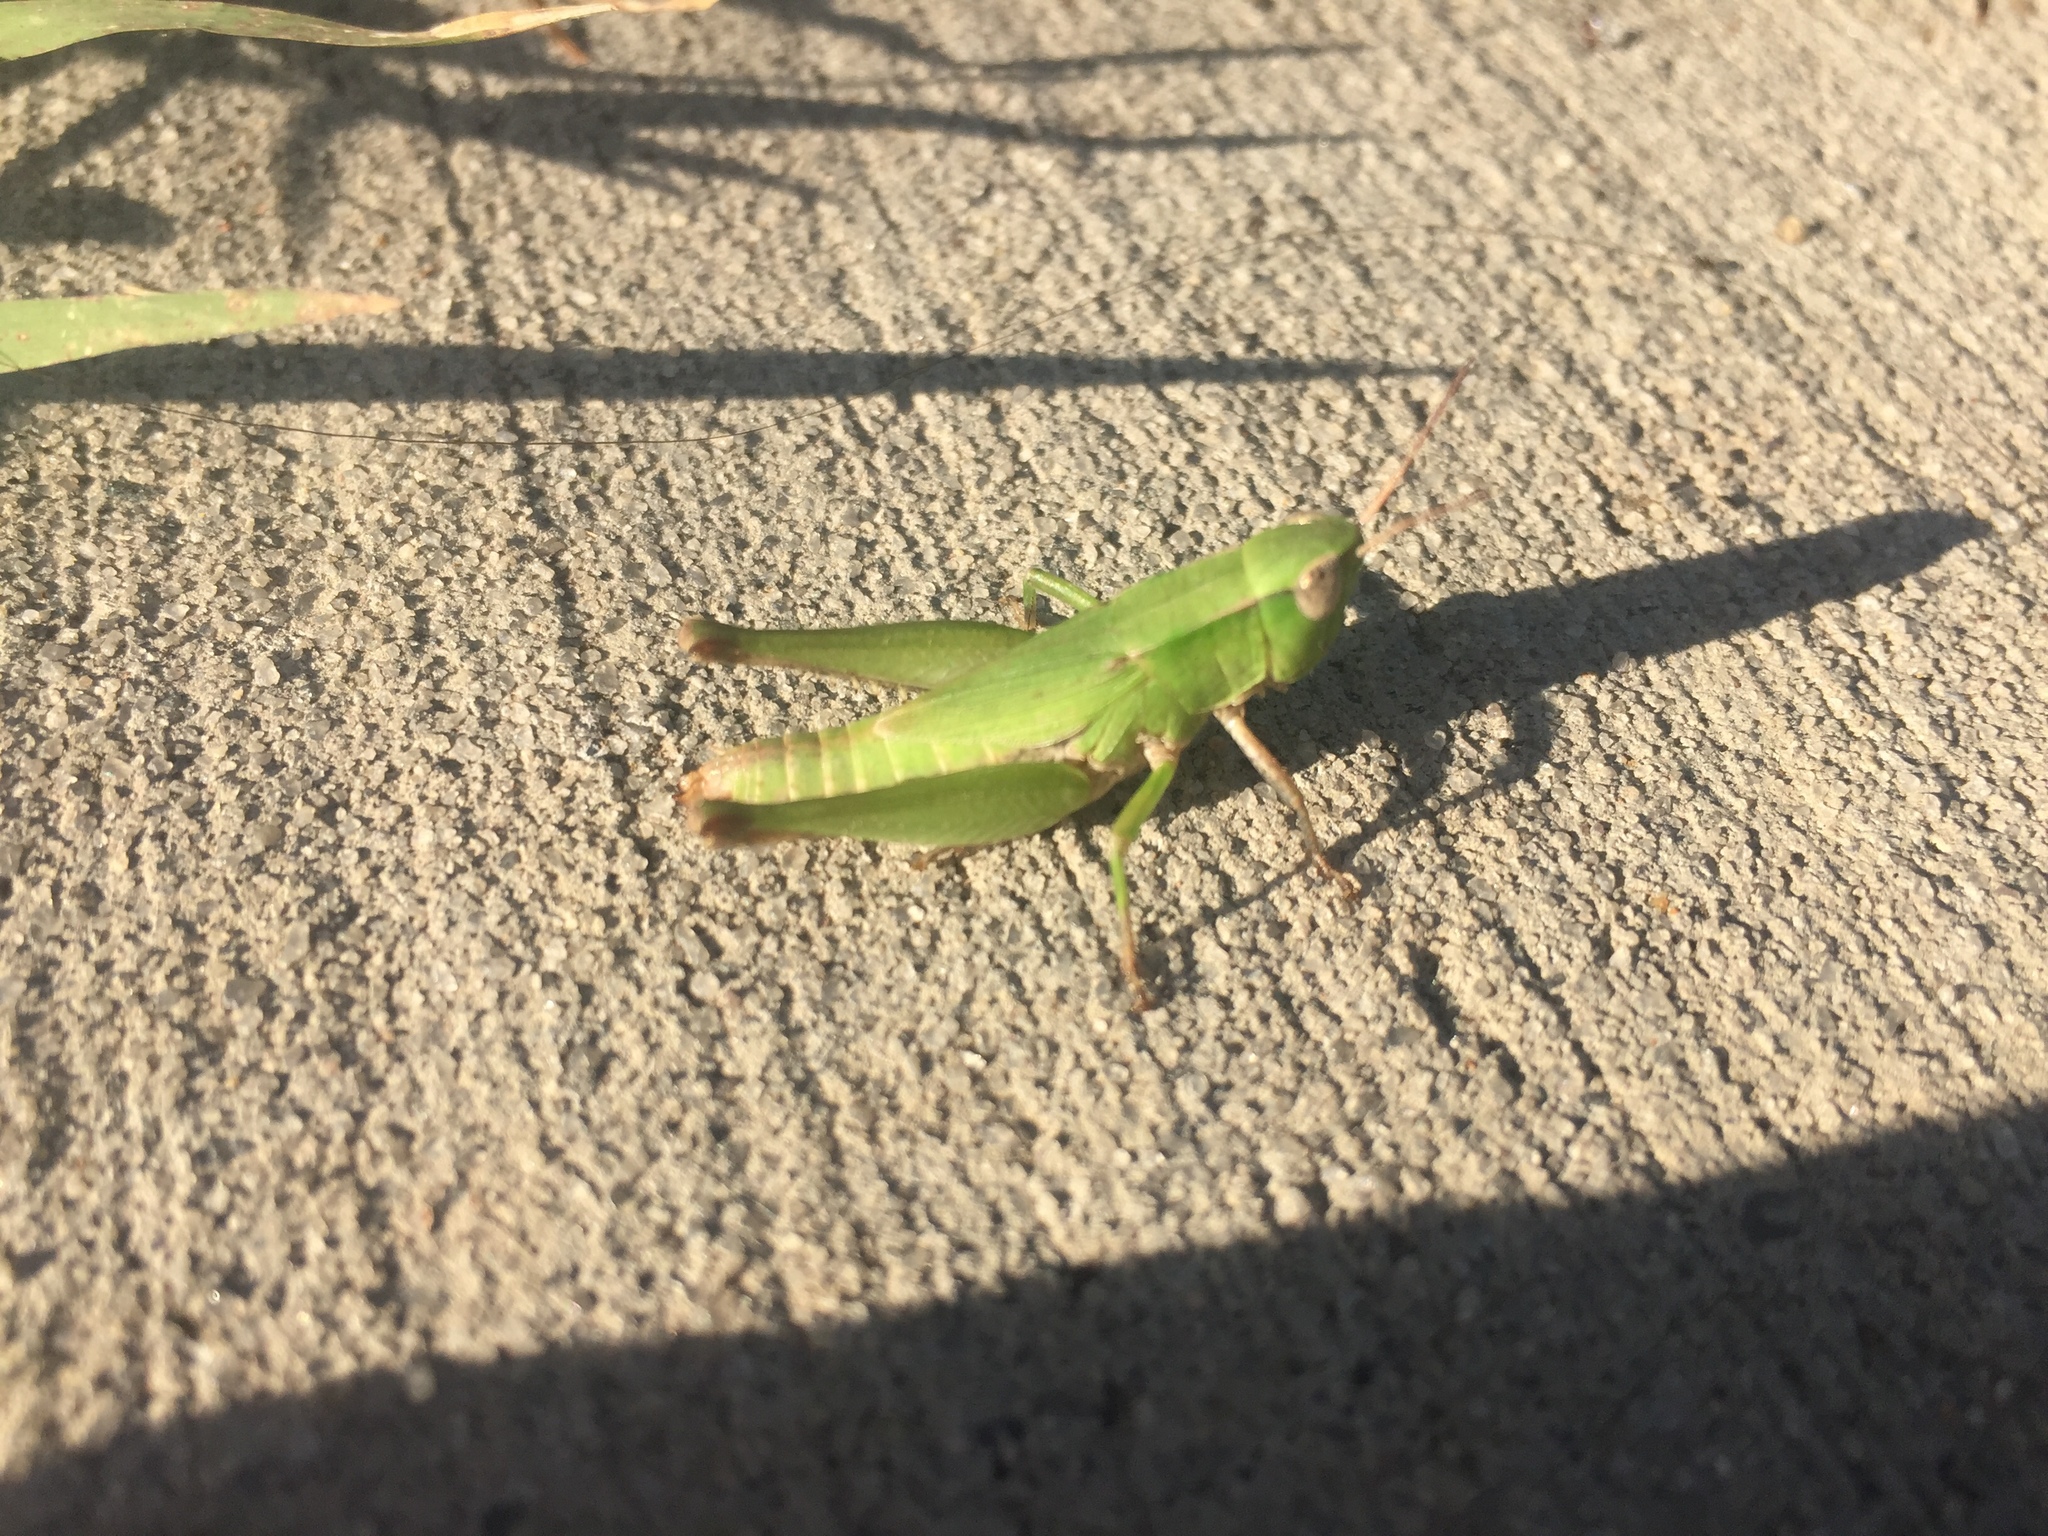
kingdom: Animalia
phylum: Arthropoda
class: Insecta
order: Orthoptera
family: Acrididae
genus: Dichromorpha
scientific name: Dichromorpha viridis
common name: Short-winged green grasshopper
